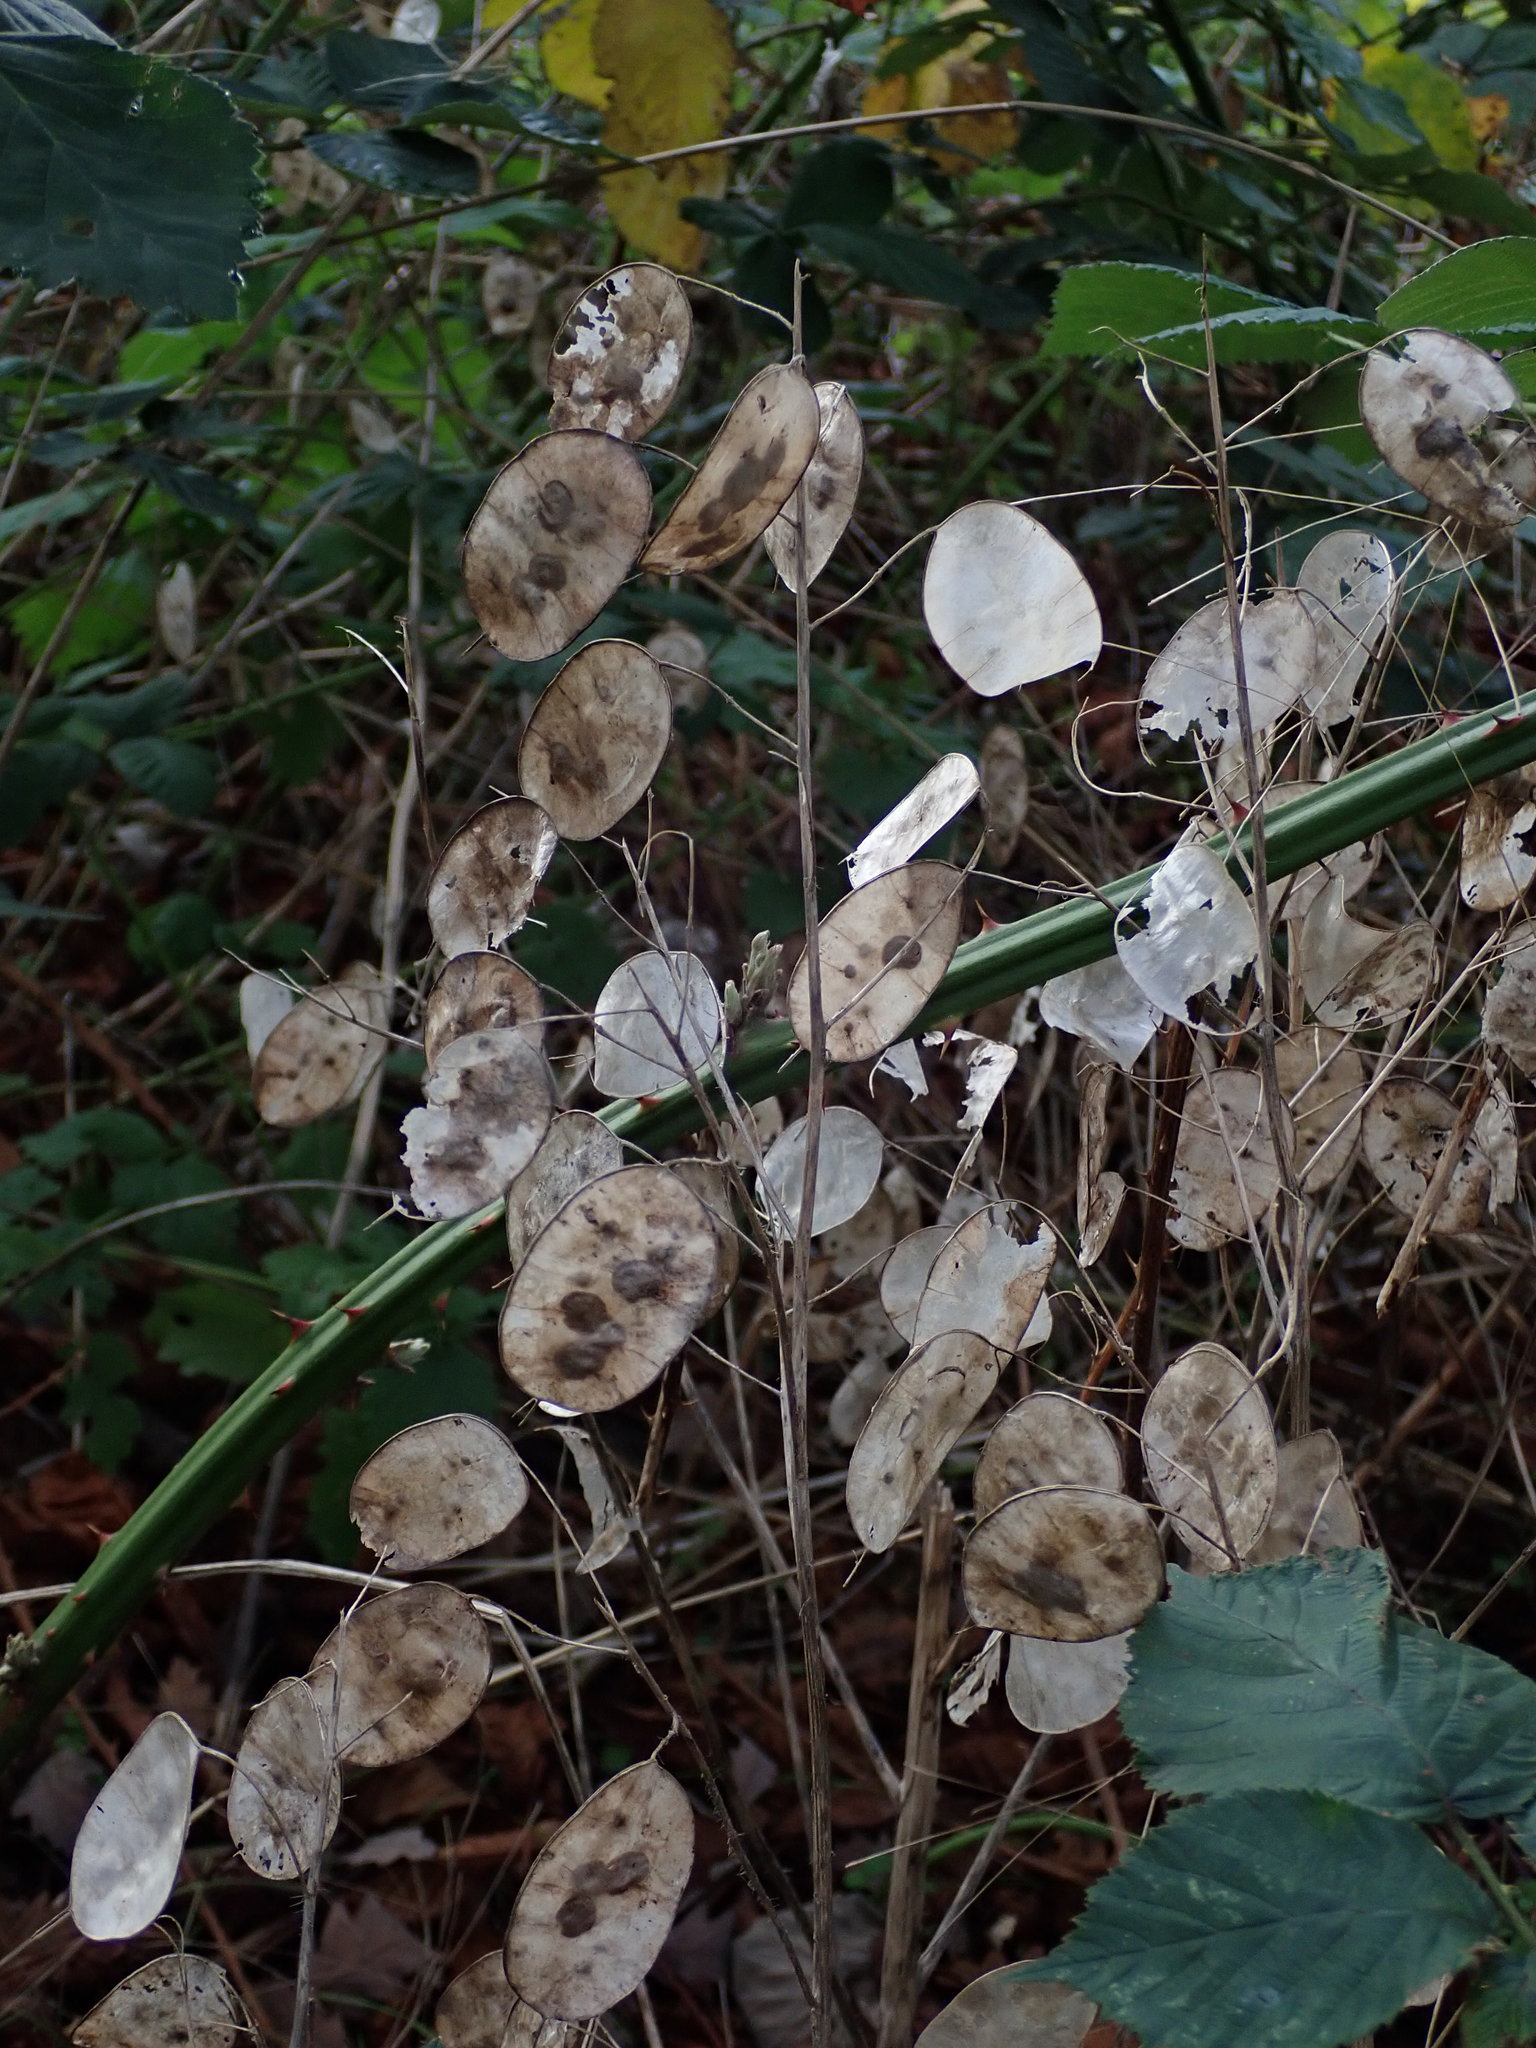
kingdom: Plantae
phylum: Tracheophyta
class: Magnoliopsida
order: Brassicales
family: Brassicaceae
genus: Lunaria
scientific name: Lunaria annua
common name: Honesty
